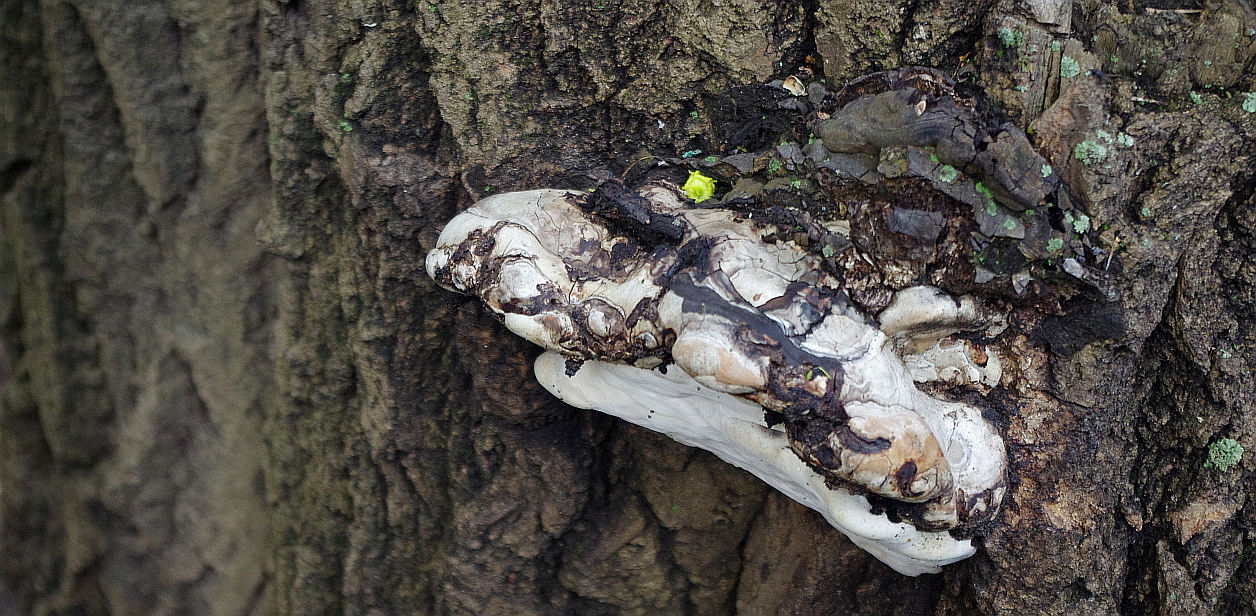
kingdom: Fungi
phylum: Basidiomycota
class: Agaricomycetes
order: Polyporales
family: Polyporaceae
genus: Fomes
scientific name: Fomes fomentarius
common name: Hoof fungus
